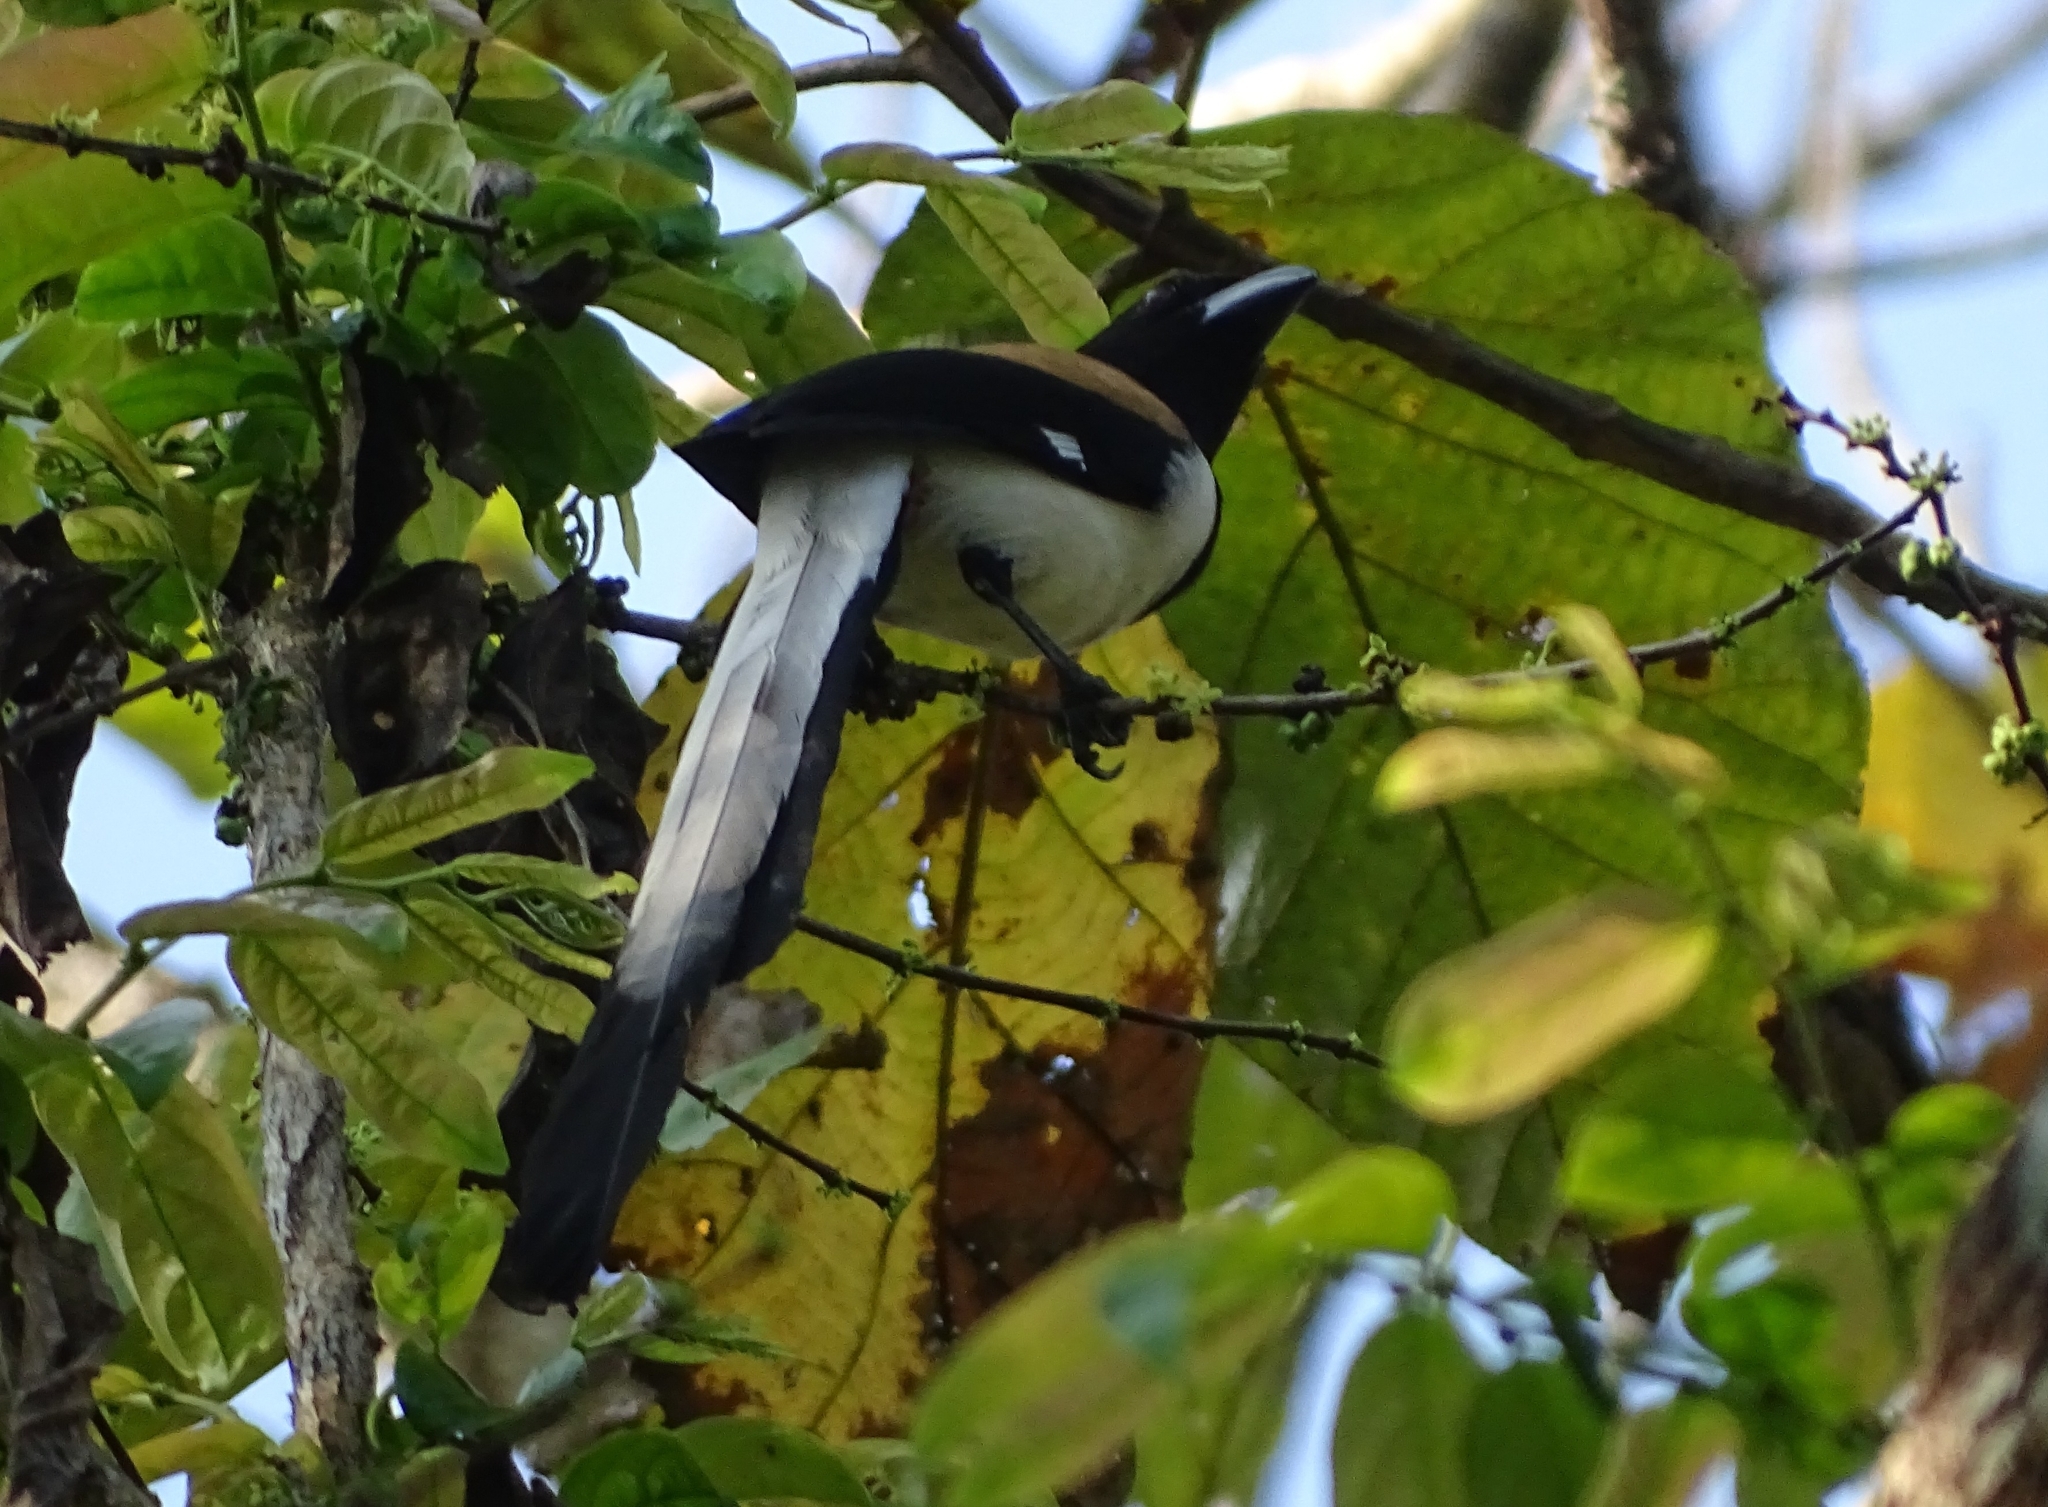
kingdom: Animalia
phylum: Chordata
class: Aves
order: Passeriformes
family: Corvidae
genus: Dendrocitta
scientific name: Dendrocitta leucogastra
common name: White-bellied treepie
